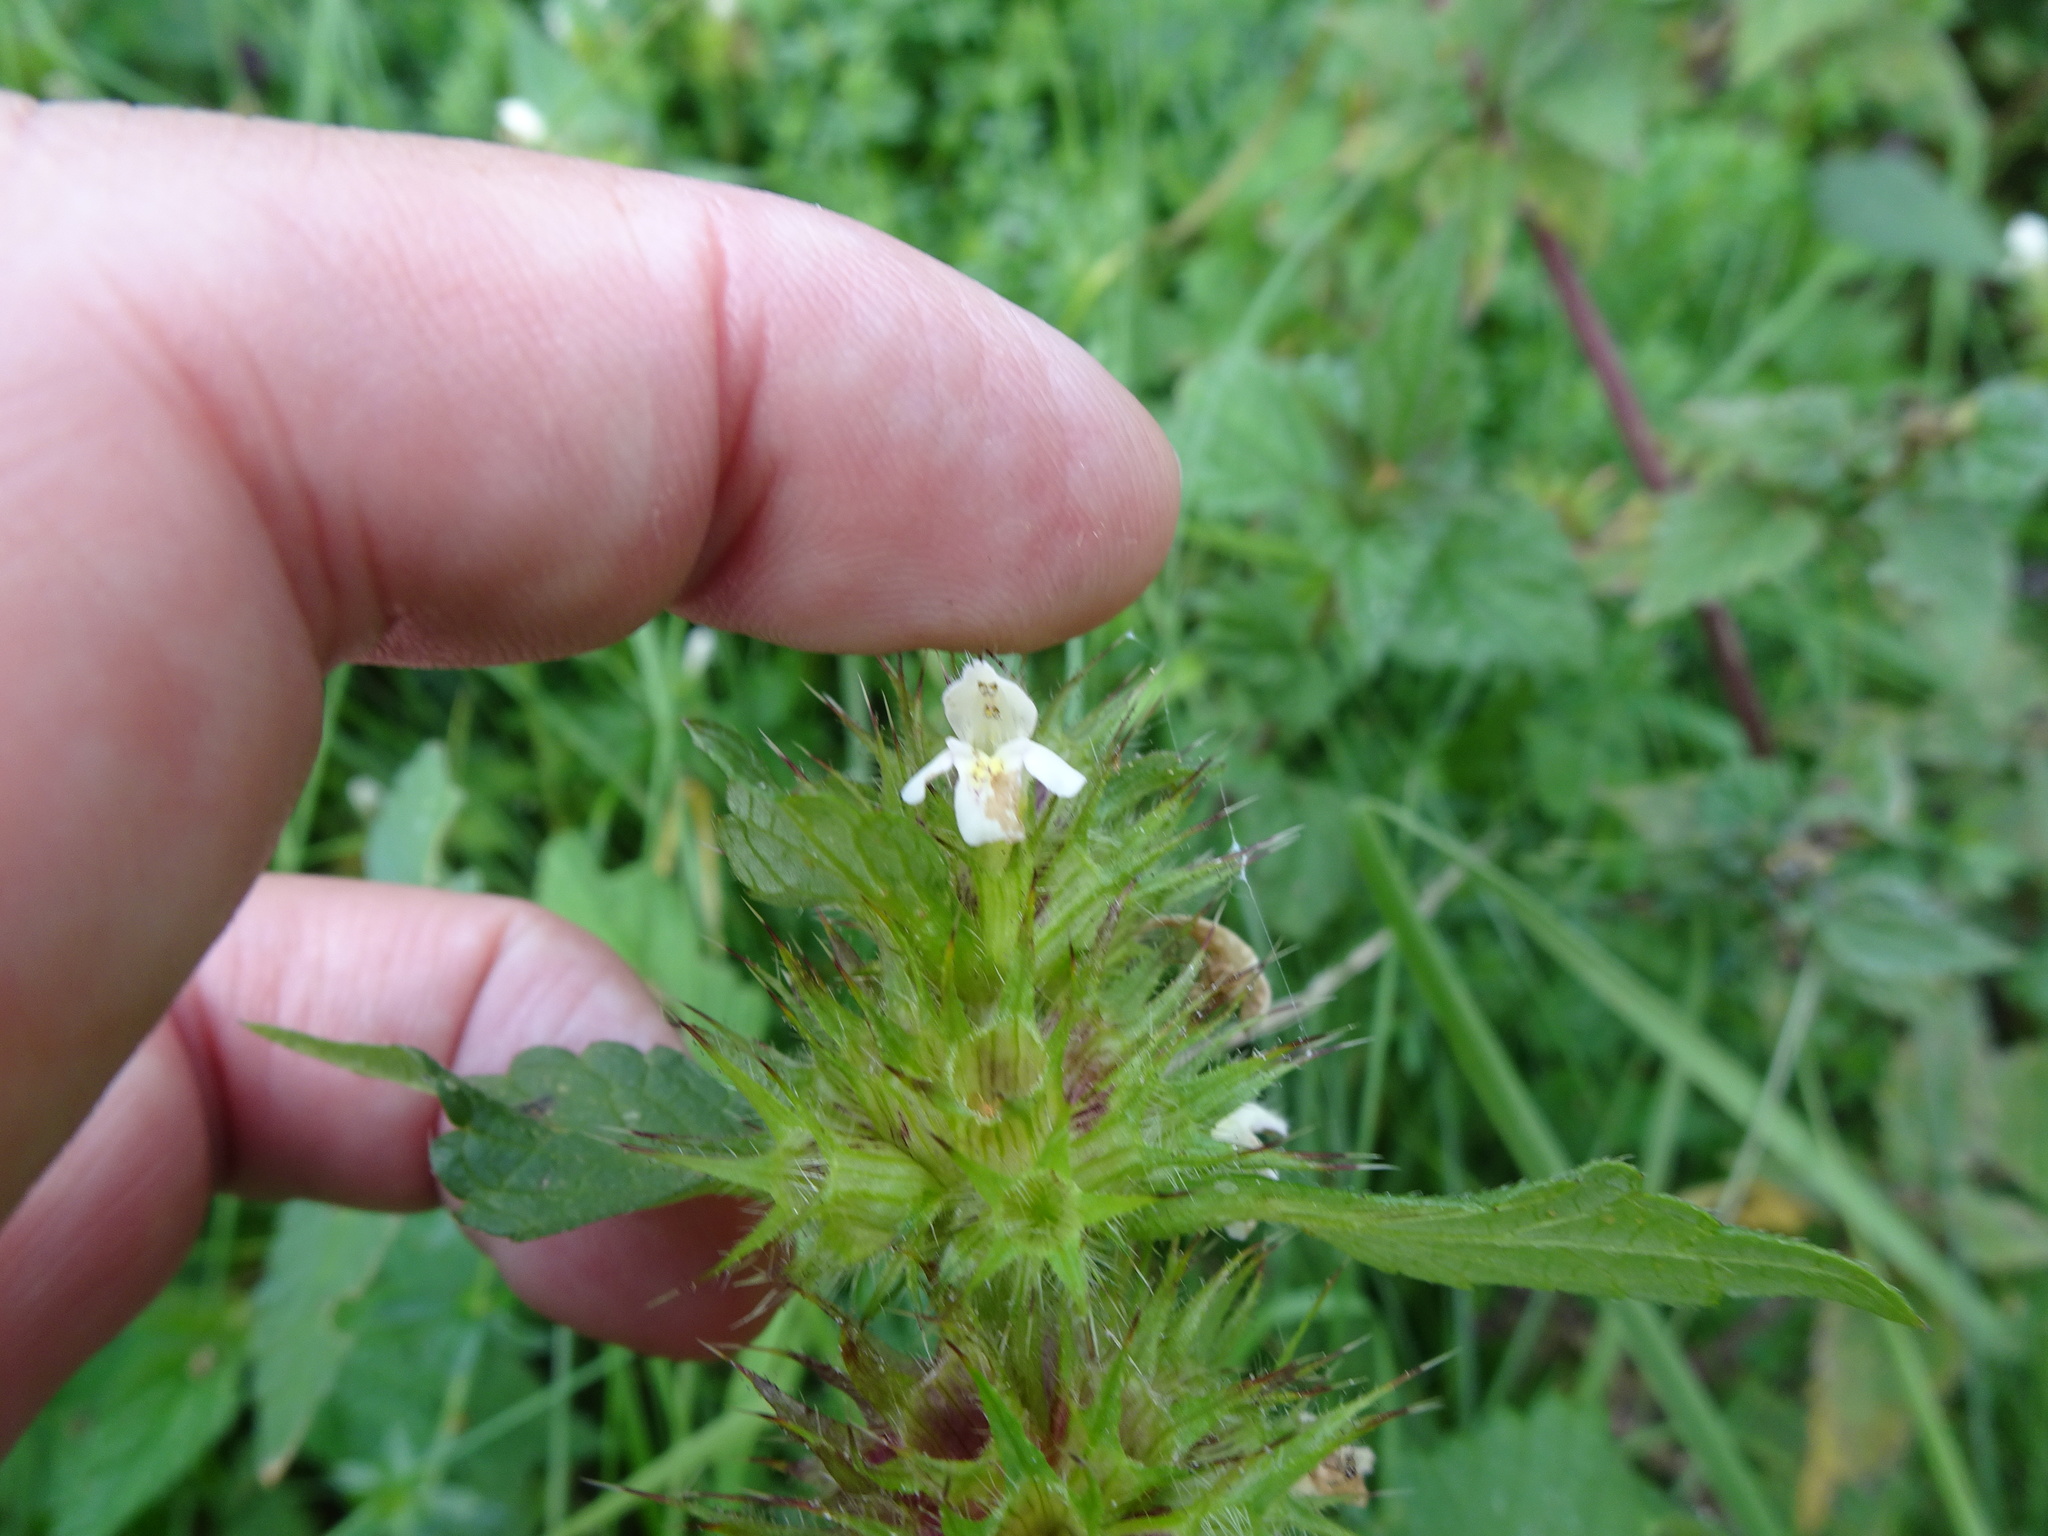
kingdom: Plantae
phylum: Tracheophyta
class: Magnoliopsida
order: Lamiales
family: Lamiaceae
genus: Galeopsis
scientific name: Galeopsis tetrahit
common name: Common hemp-nettle
